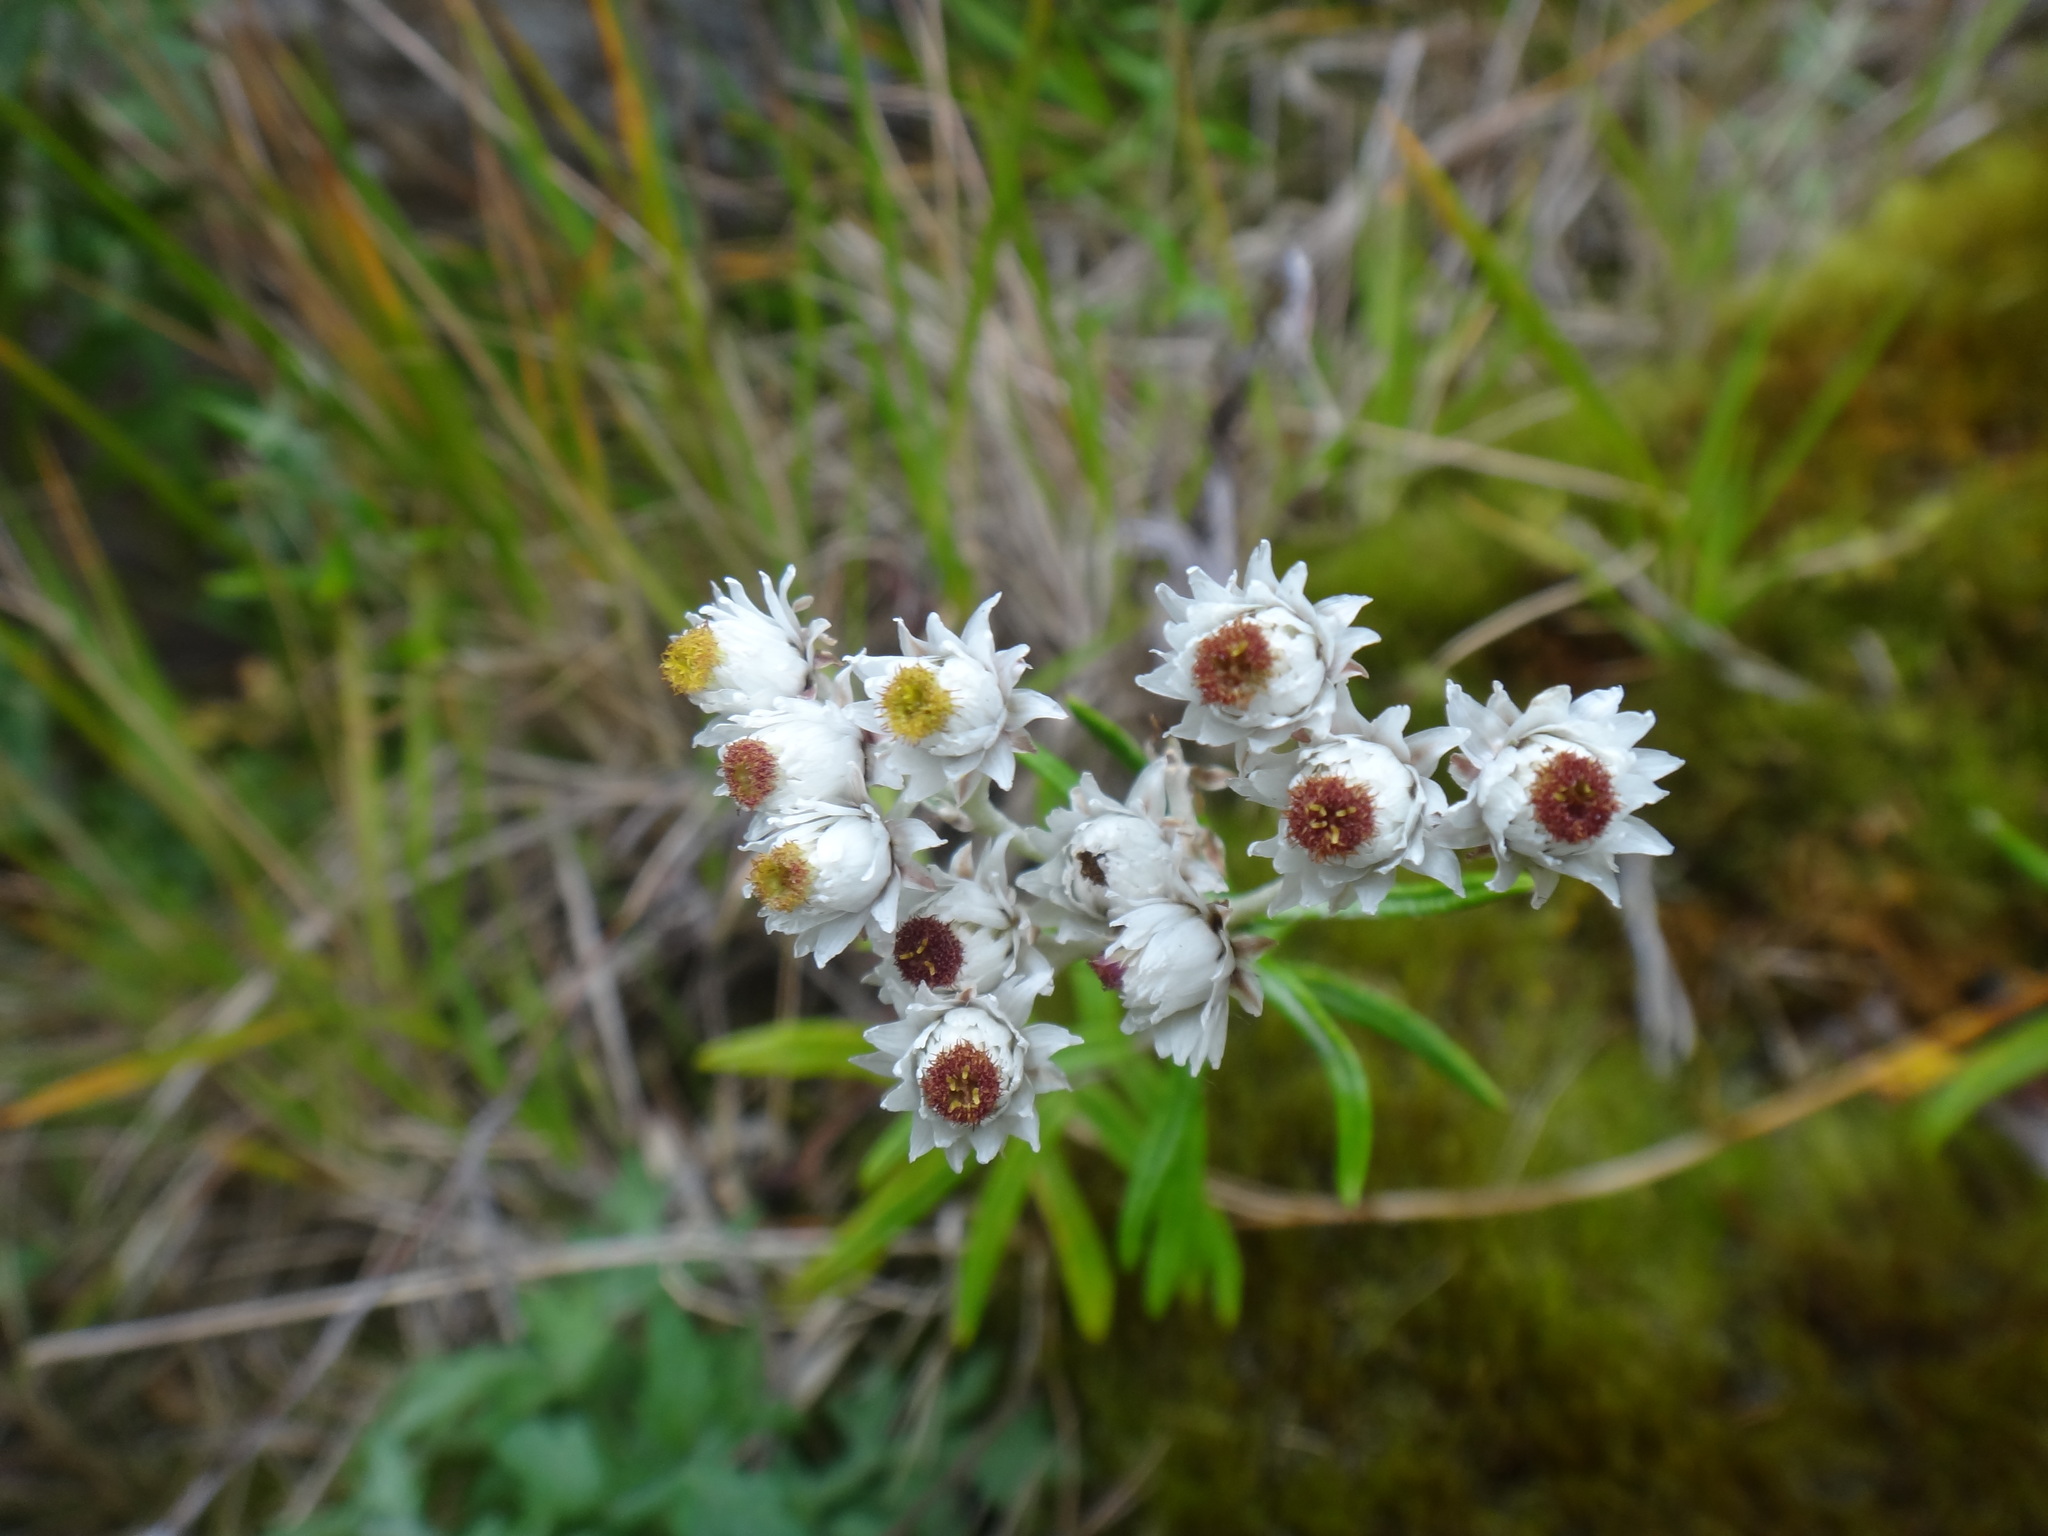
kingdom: Plantae
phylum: Tracheophyta
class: Magnoliopsida
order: Asterales
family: Asteraceae
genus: Anaphalis
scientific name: Anaphalis morrisonicola
